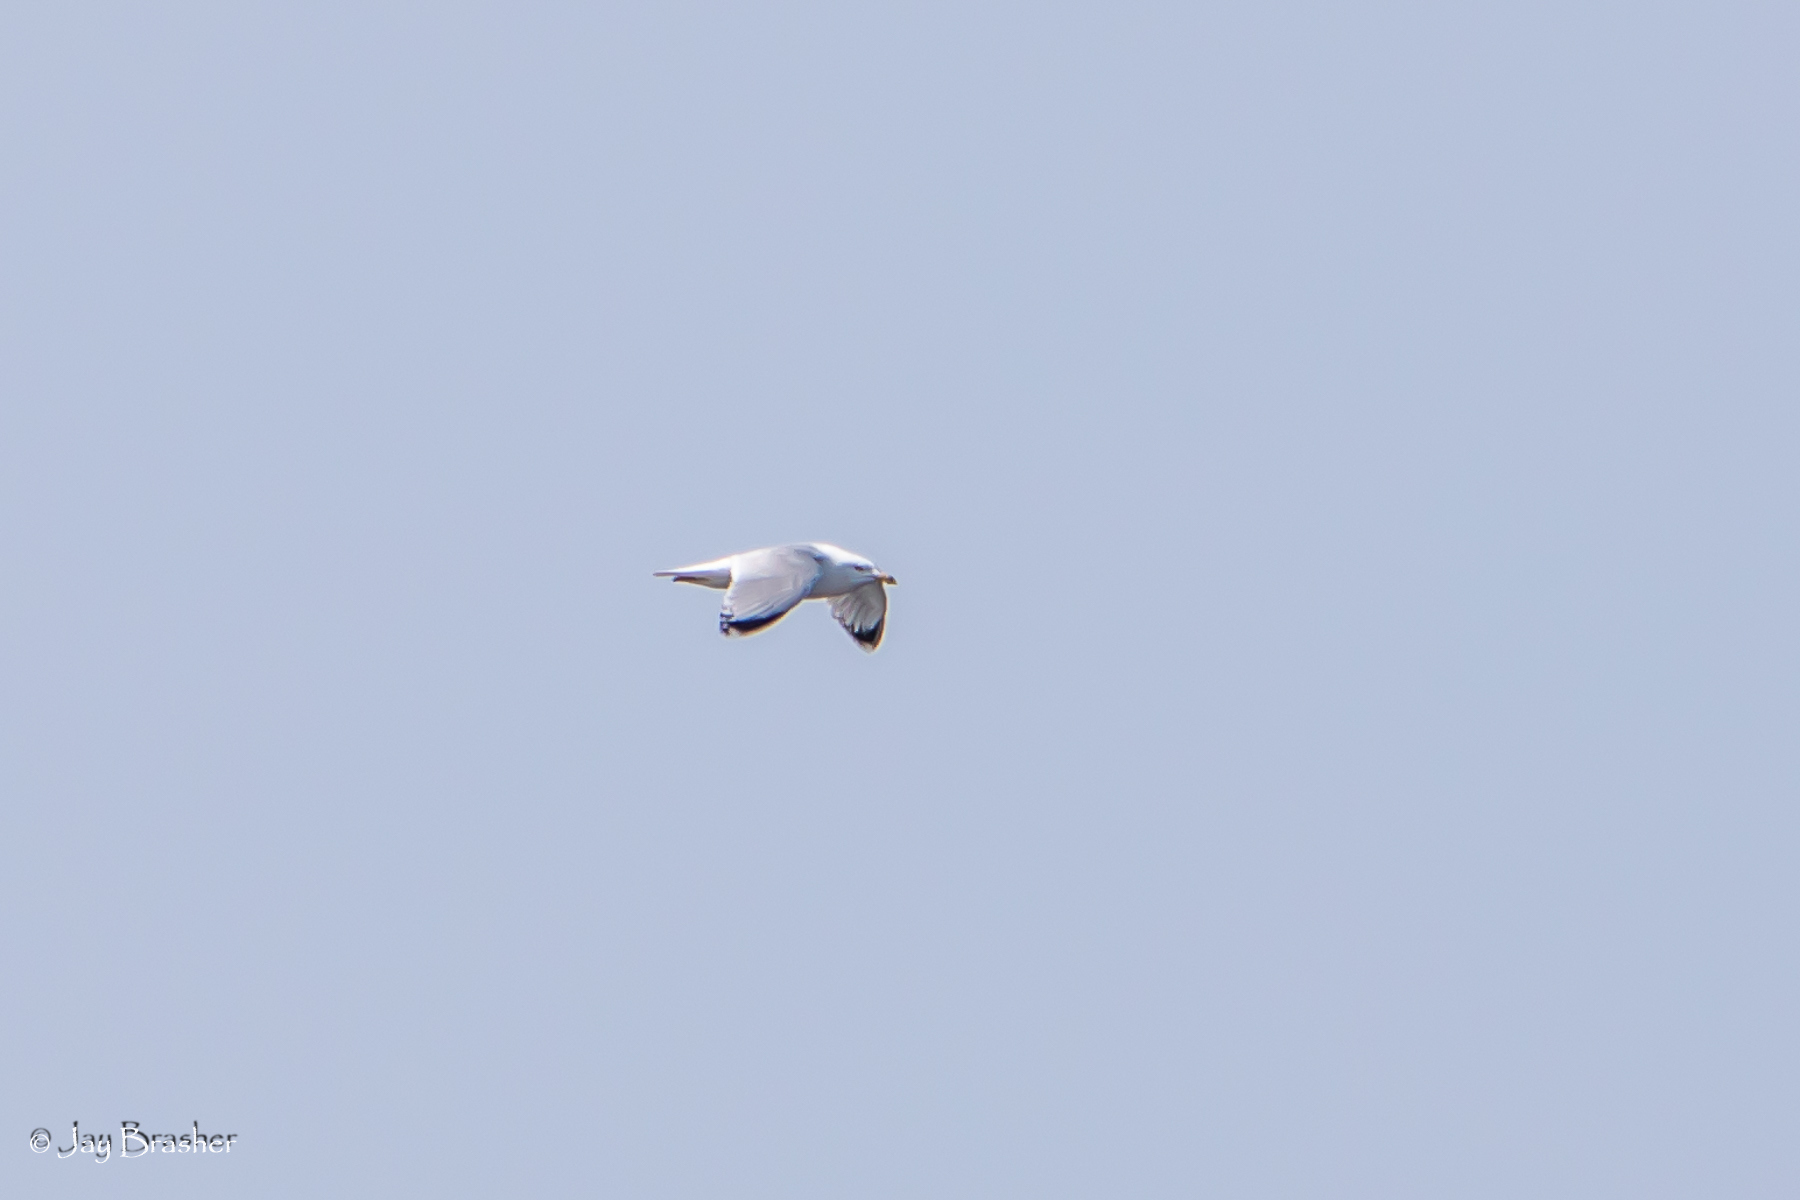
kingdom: Animalia
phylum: Chordata
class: Aves
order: Charadriiformes
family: Laridae
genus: Larus
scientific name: Larus delawarensis
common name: Ring-billed gull
